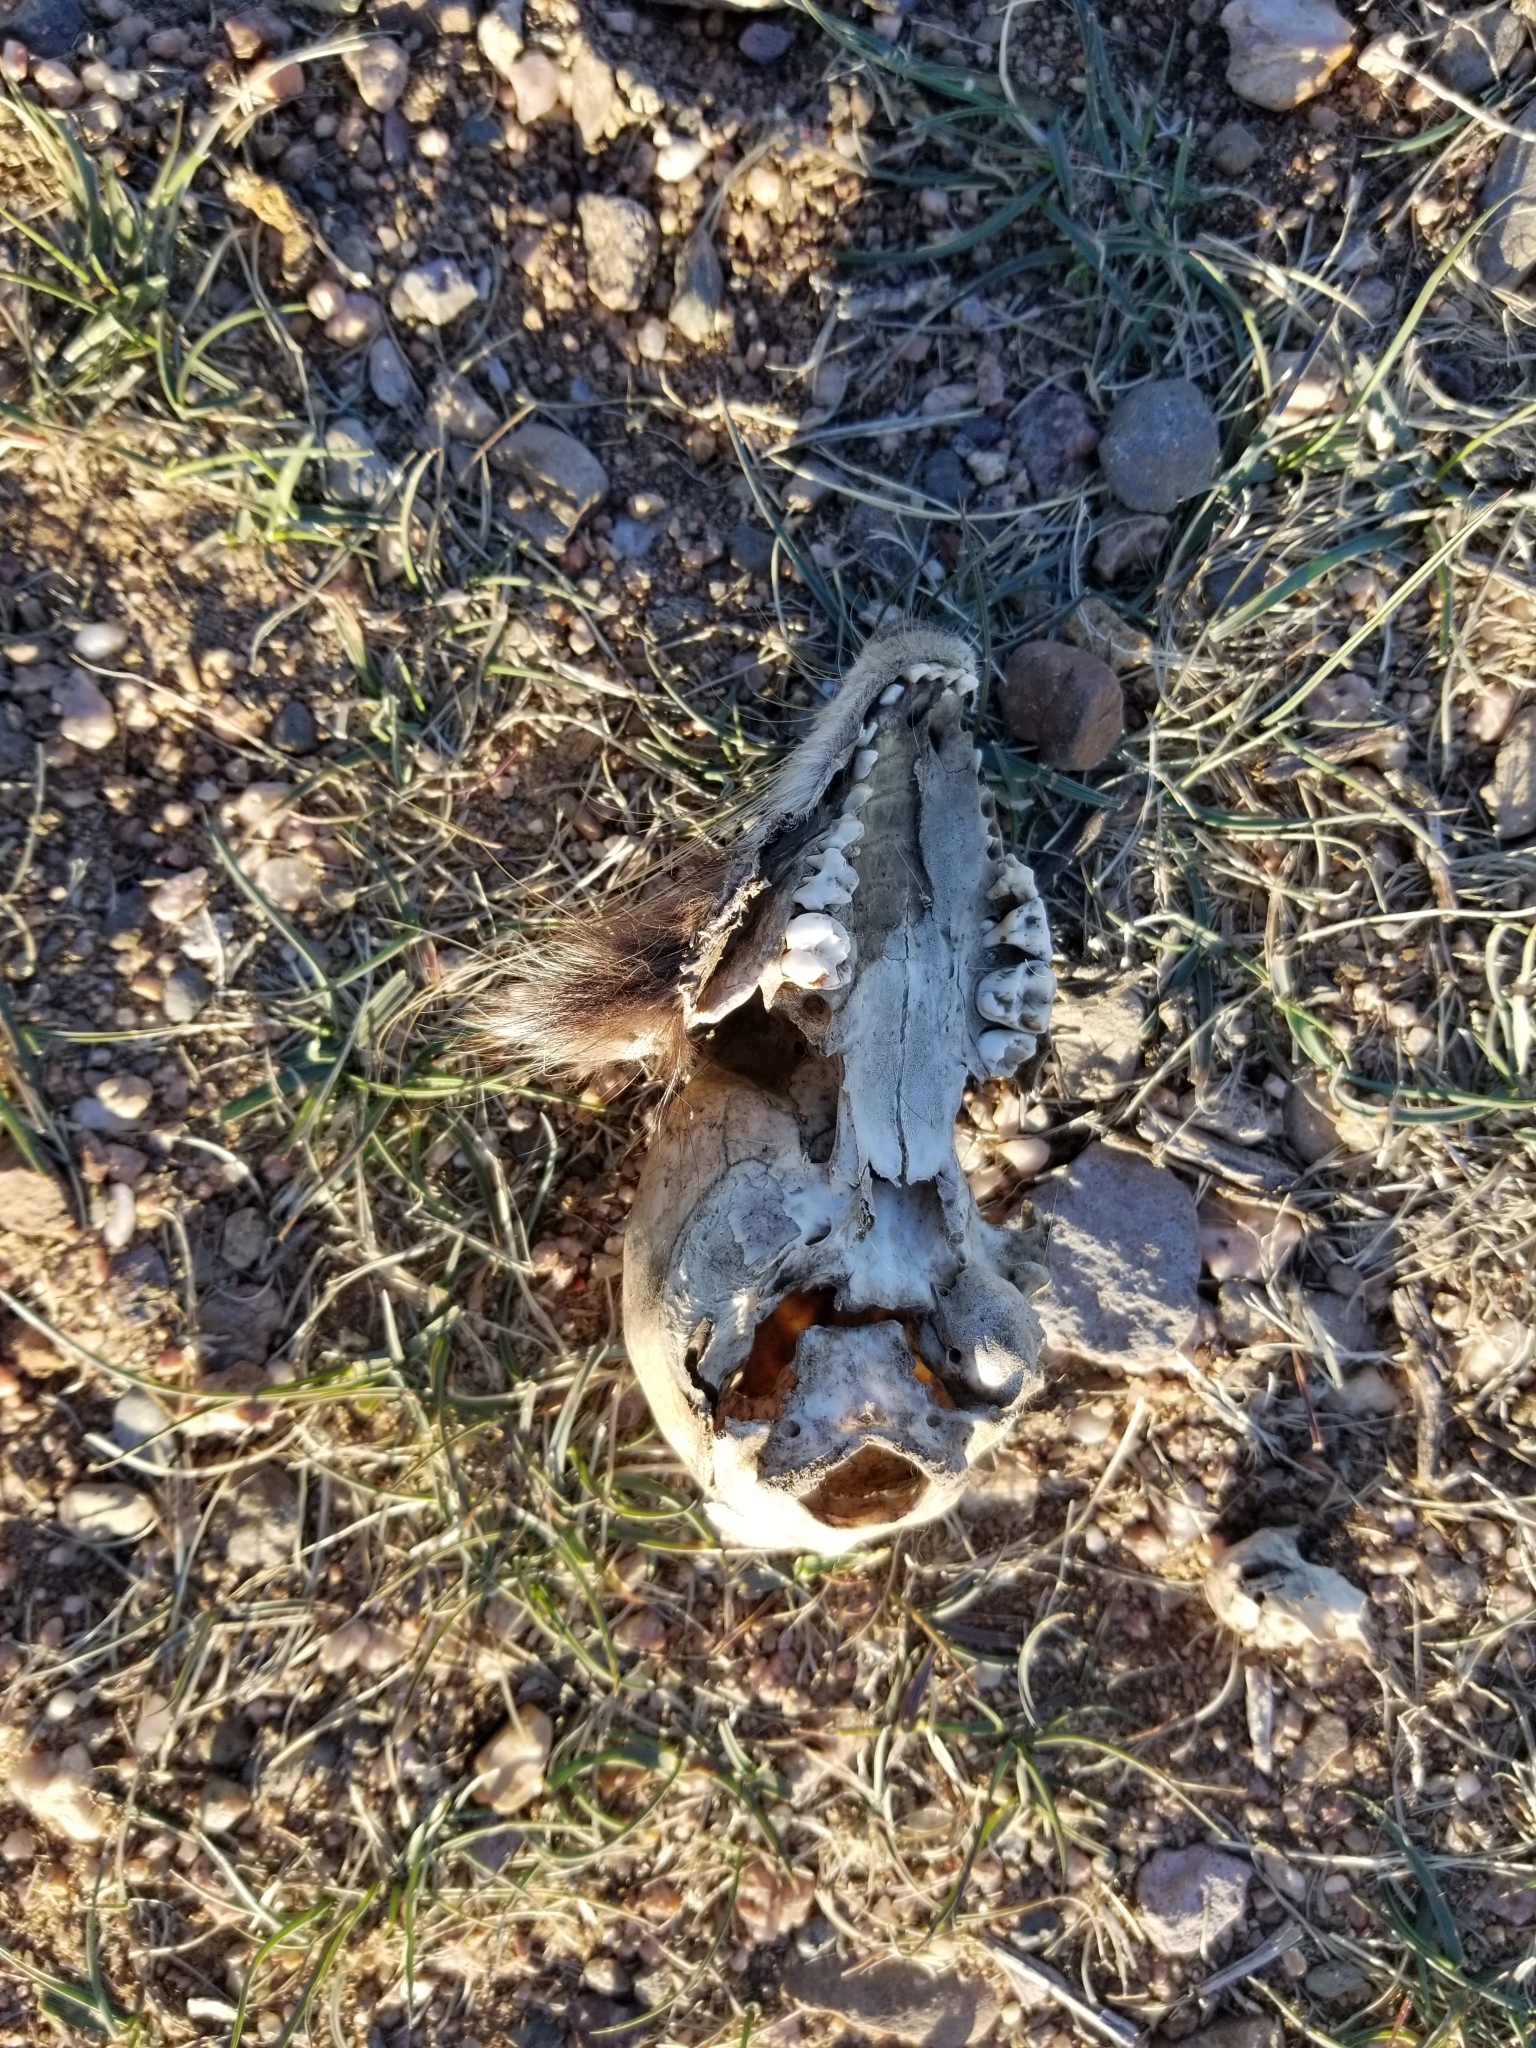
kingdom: Animalia
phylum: Chordata
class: Mammalia
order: Carnivora
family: Procyonidae
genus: Procyon
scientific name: Procyon lotor
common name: Raccoon
